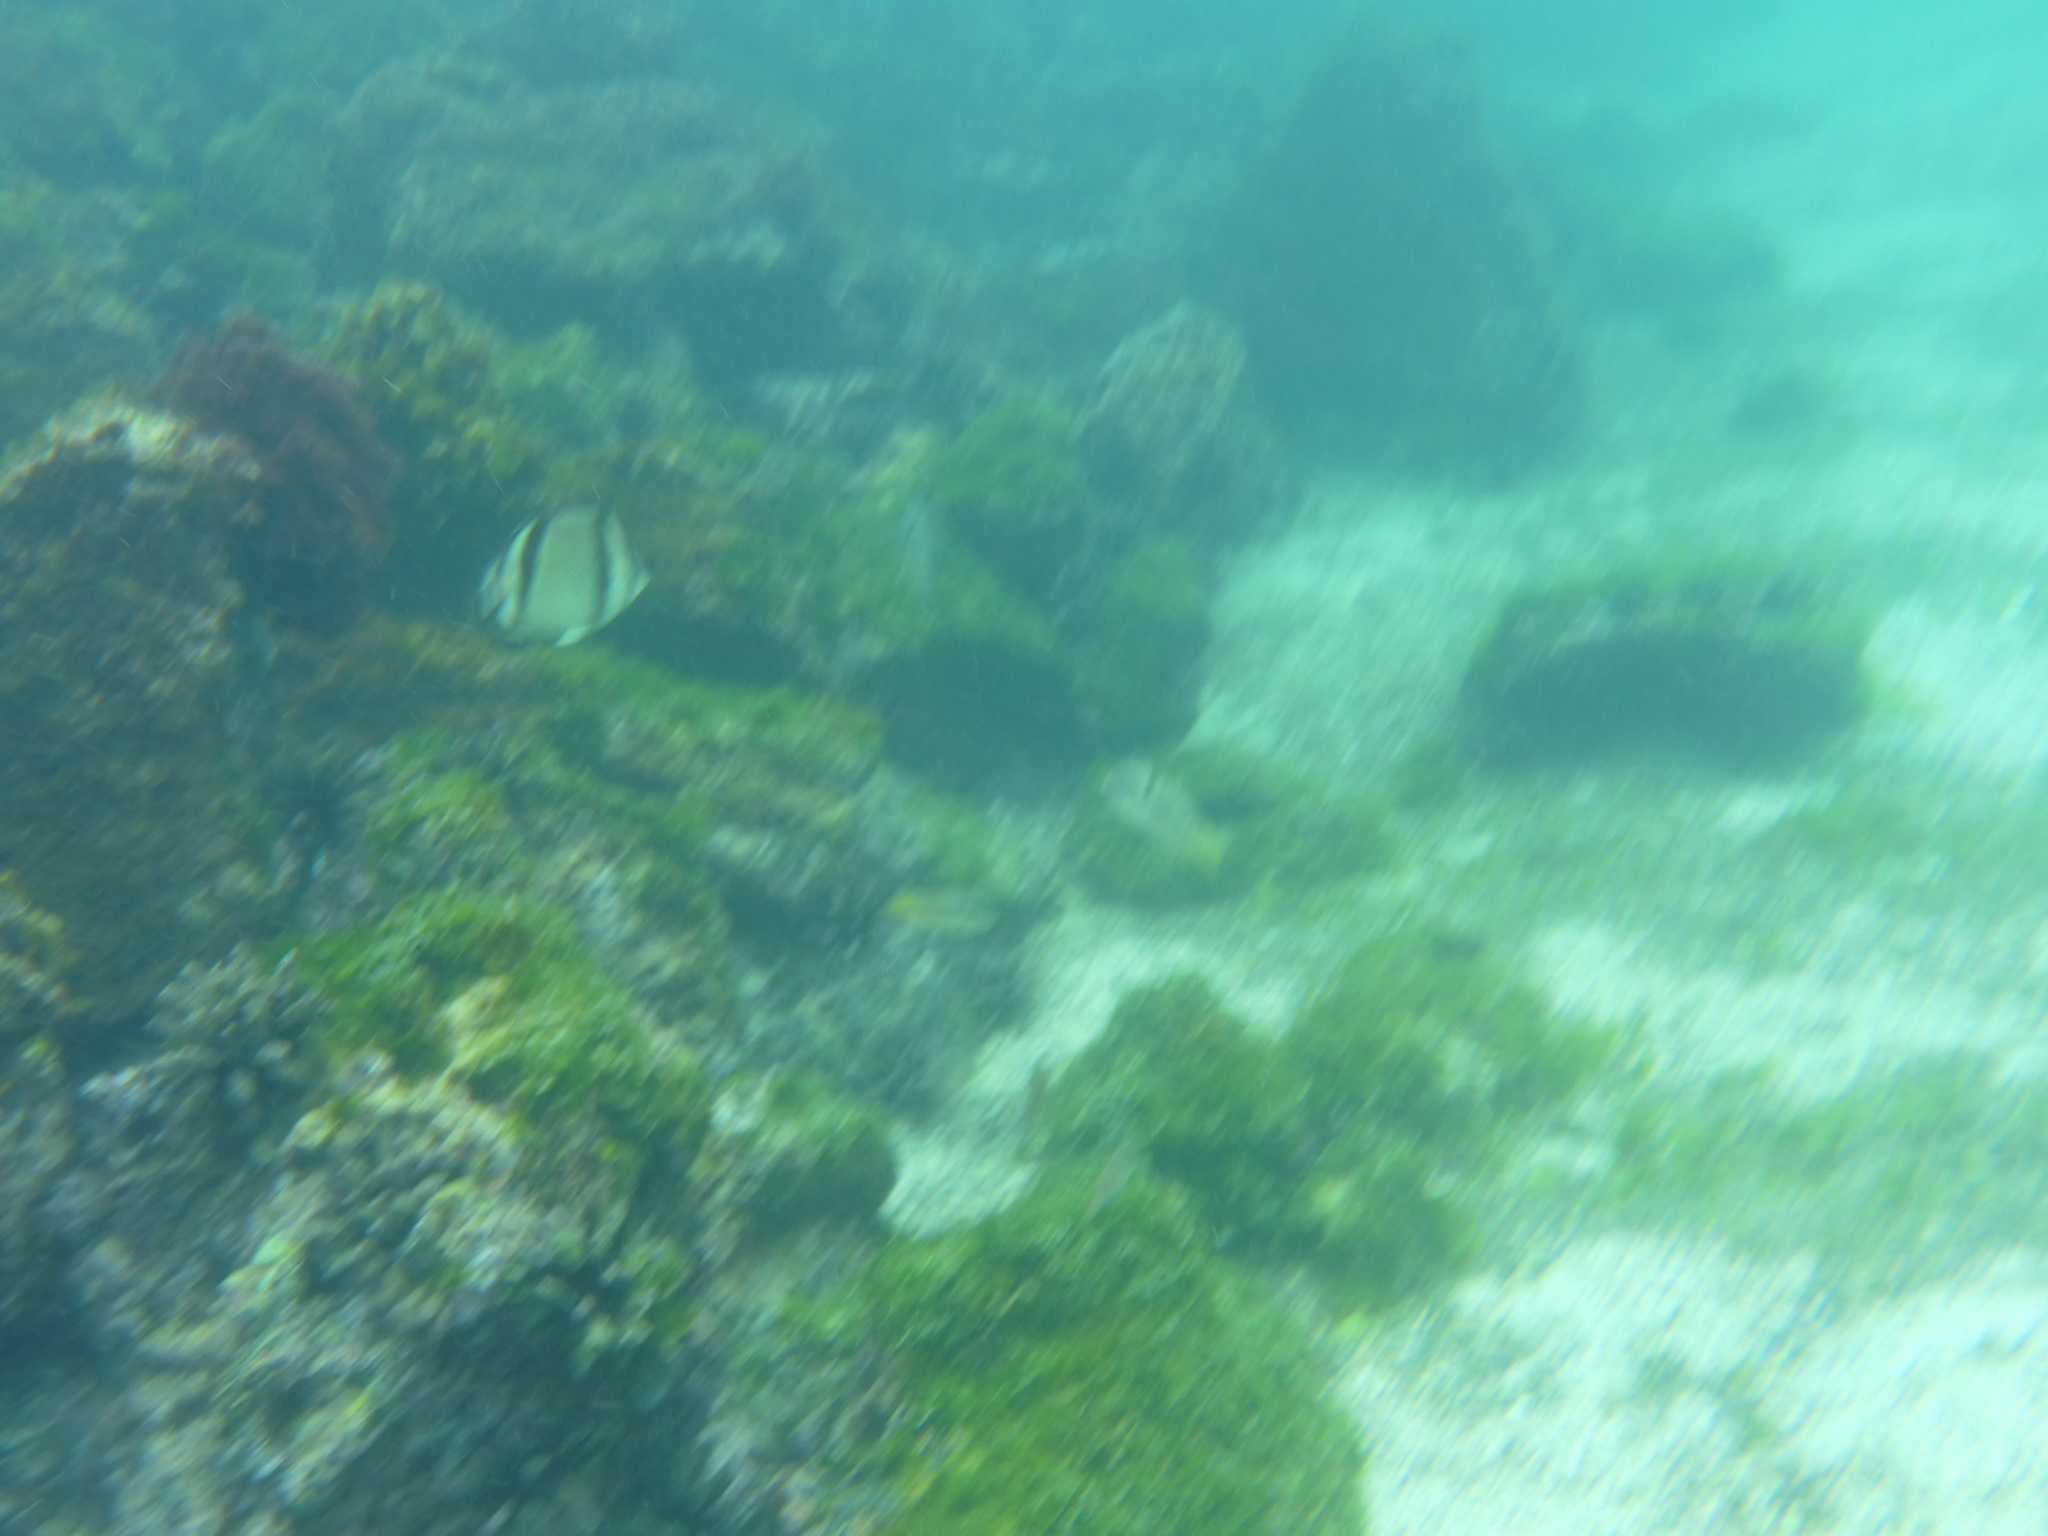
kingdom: Animalia
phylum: Chordata
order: Perciformes
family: Chaetodontidae
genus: Chaetodon
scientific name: Chaetodon humeralis
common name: Threebanded butterflyfish
